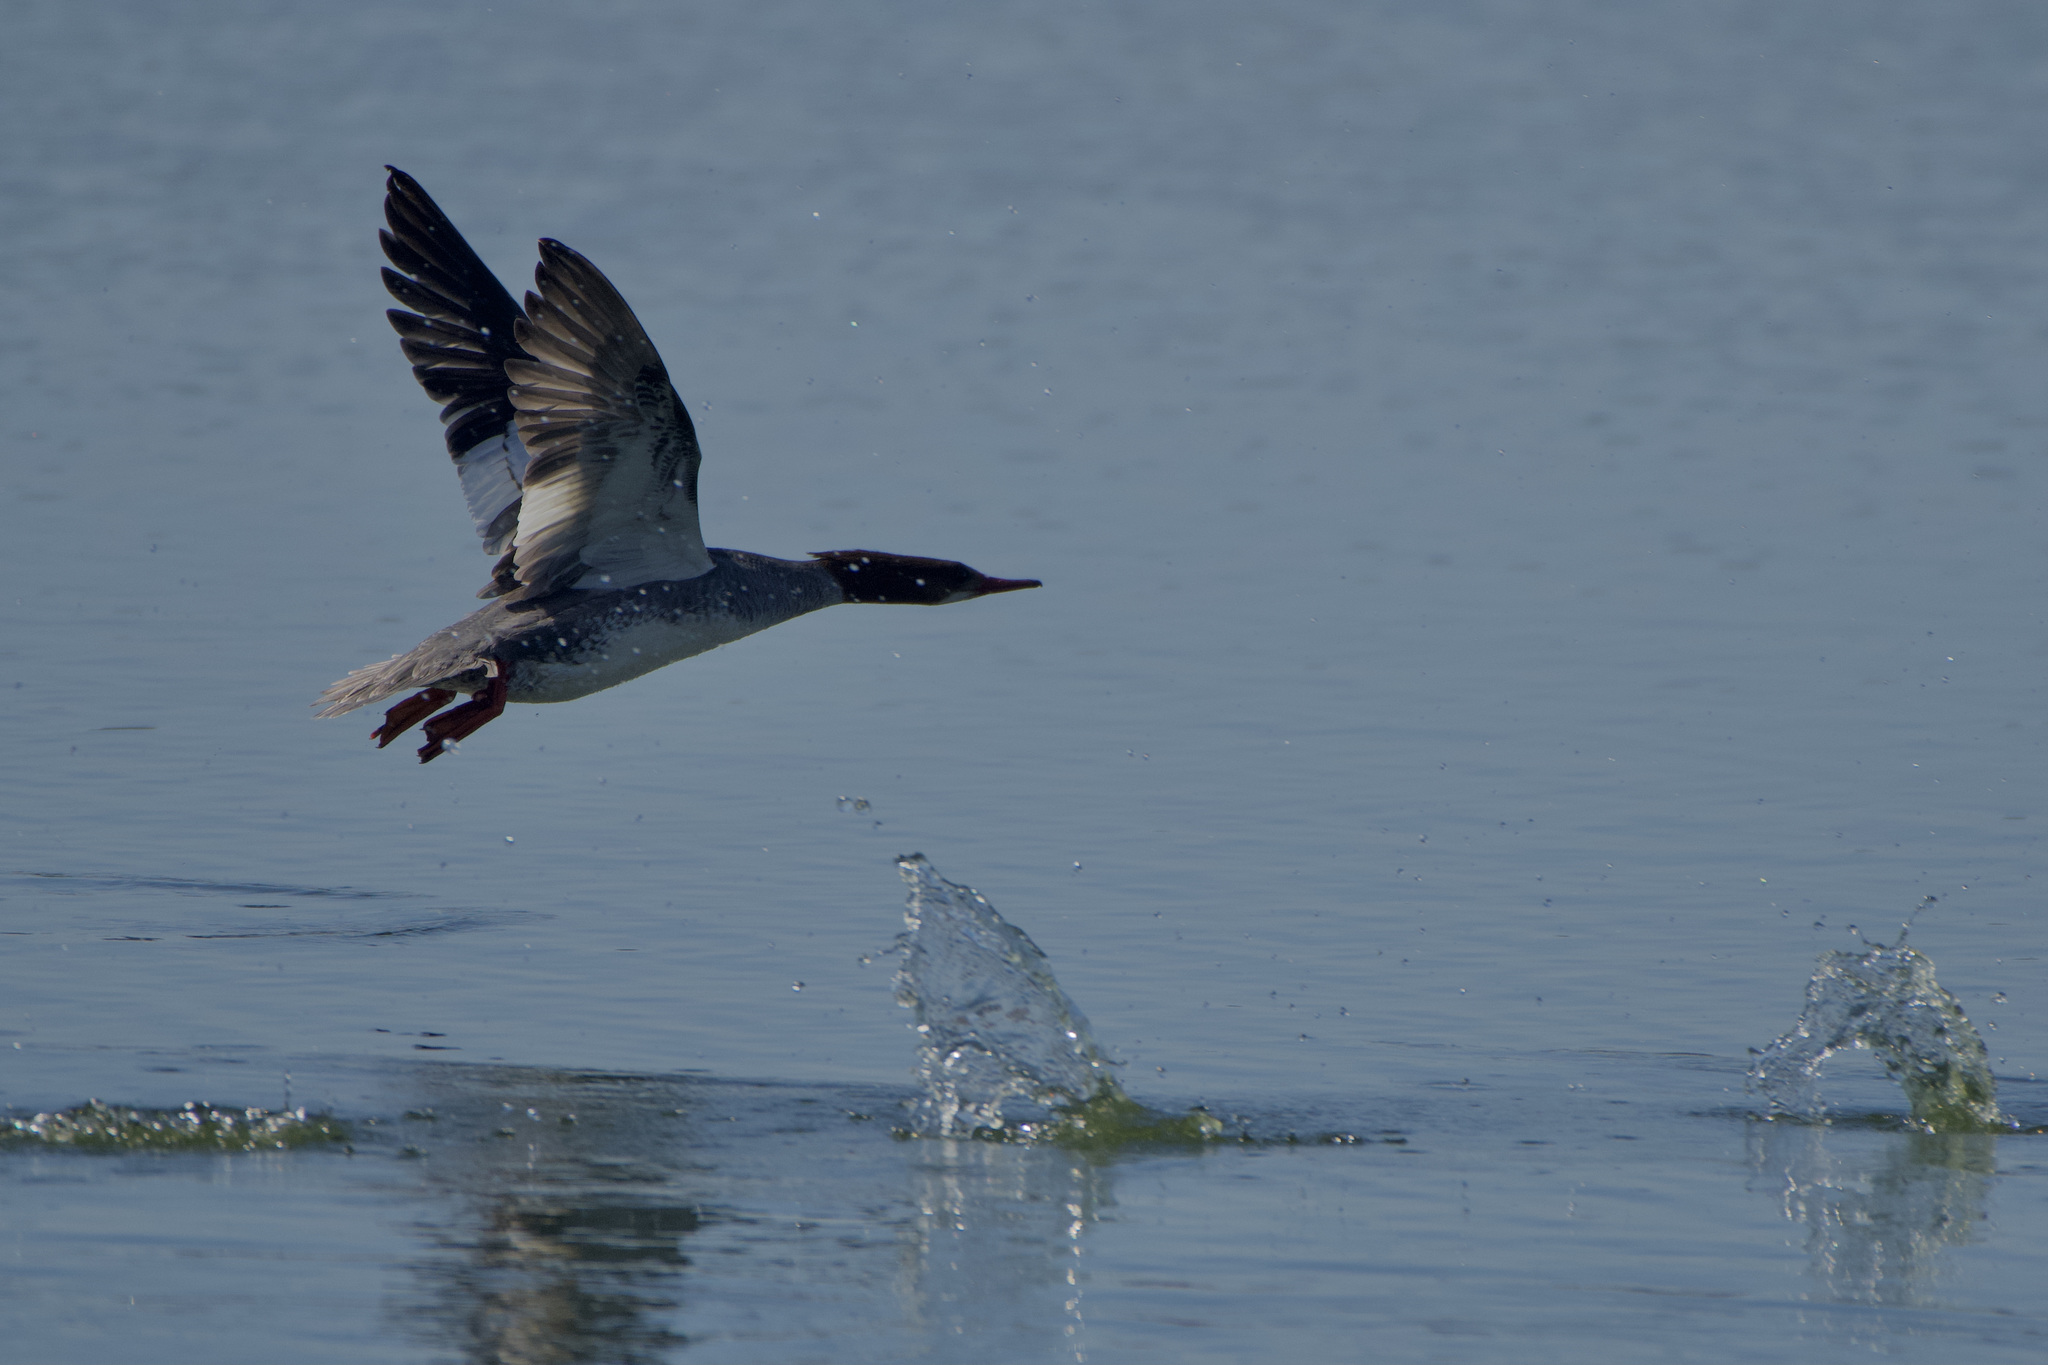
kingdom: Animalia
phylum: Chordata
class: Aves
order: Anseriformes
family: Anatidae
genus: Mergus
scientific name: Mergus merganser
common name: Common merganser
